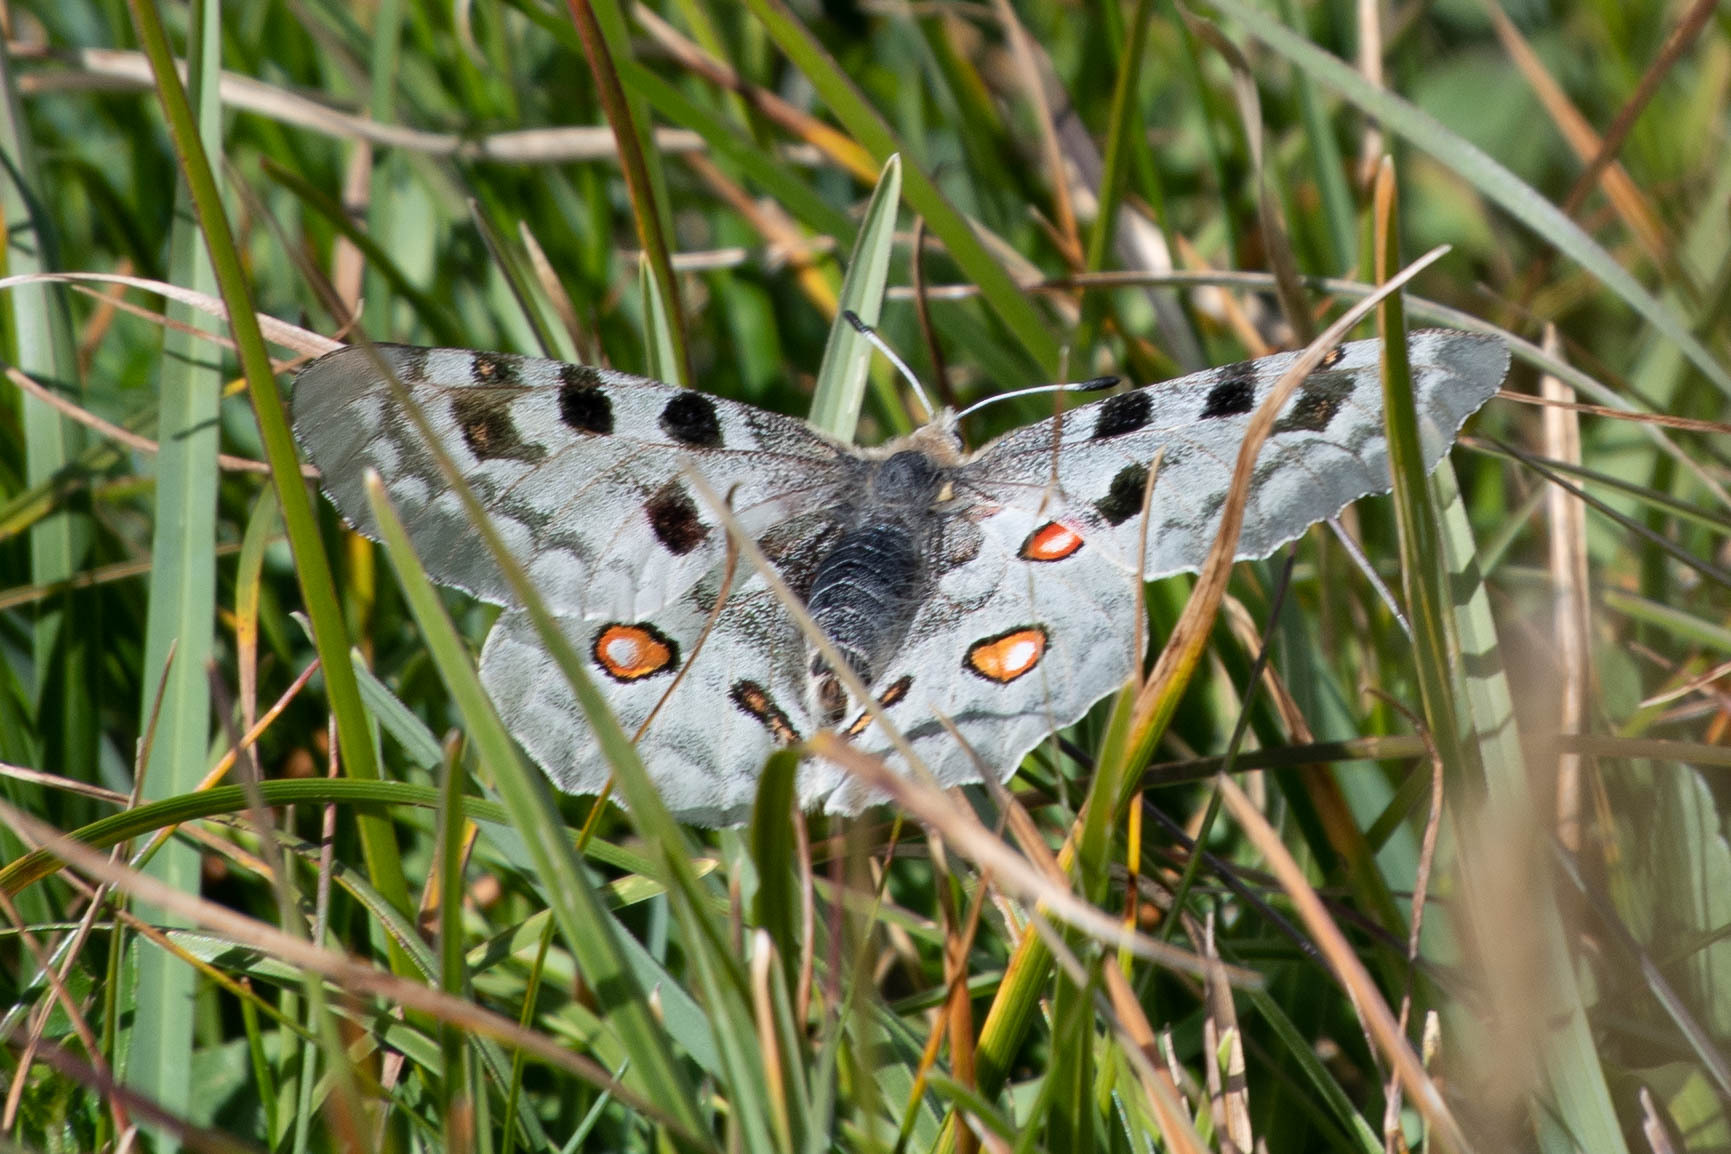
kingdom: Animalia
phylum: Arthropoda
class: Insecta
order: Lepidoptera
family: Papilionidae
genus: Parnassius
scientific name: Parnassius apollo
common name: Apollo
